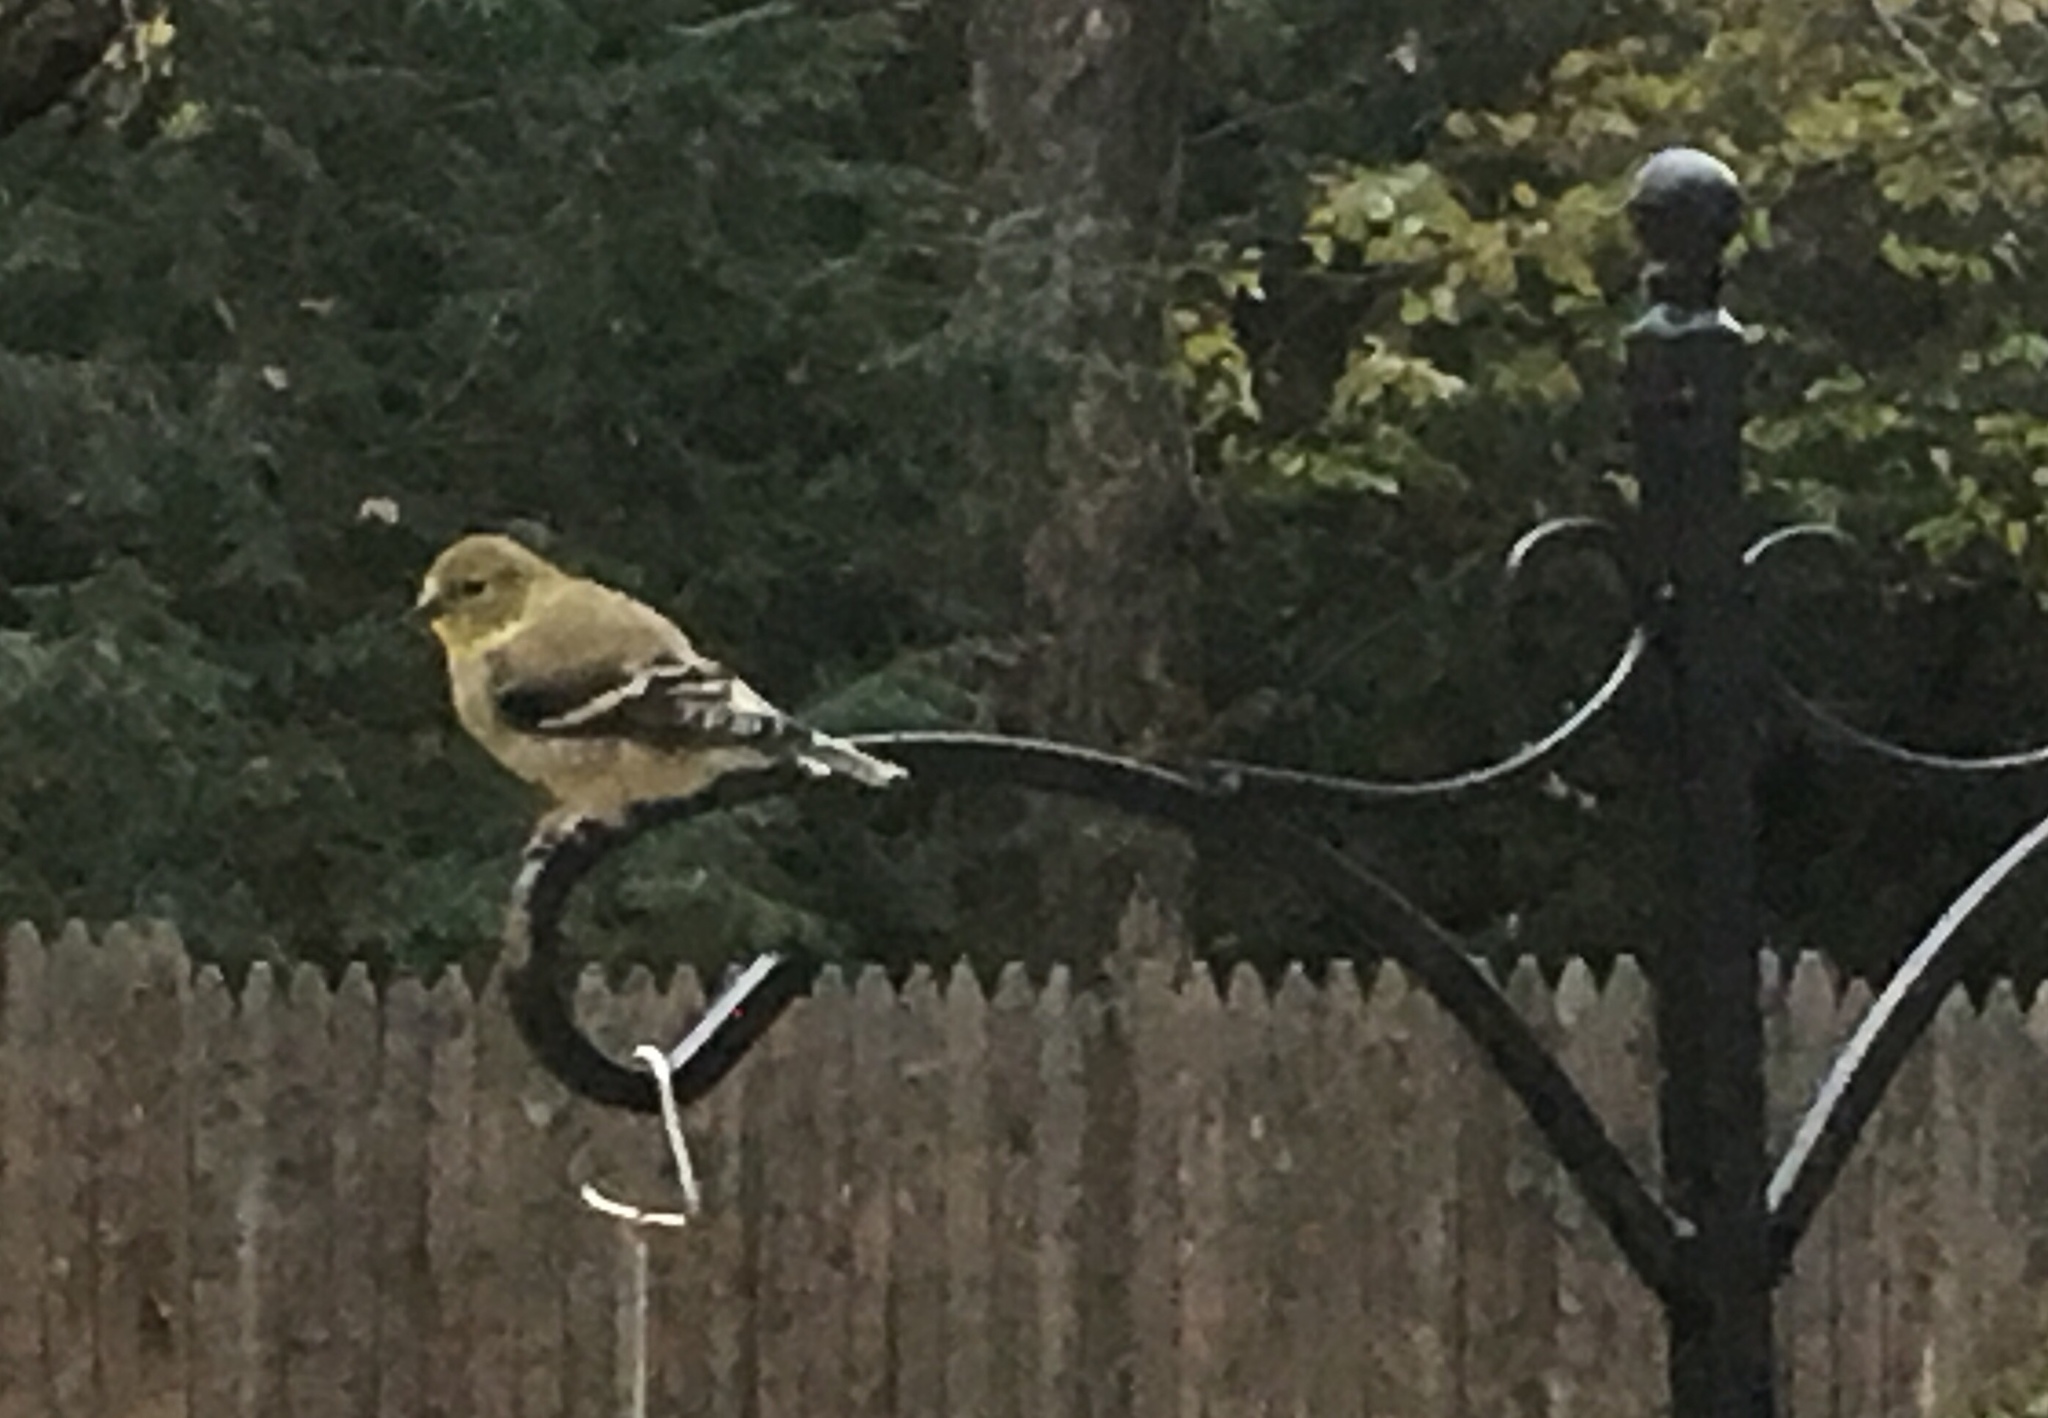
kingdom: Animalia
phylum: Chordata
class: Aves
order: Passeriformes
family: Fringillidae
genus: Spinus
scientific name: Spinus tristis
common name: American goldfinch
